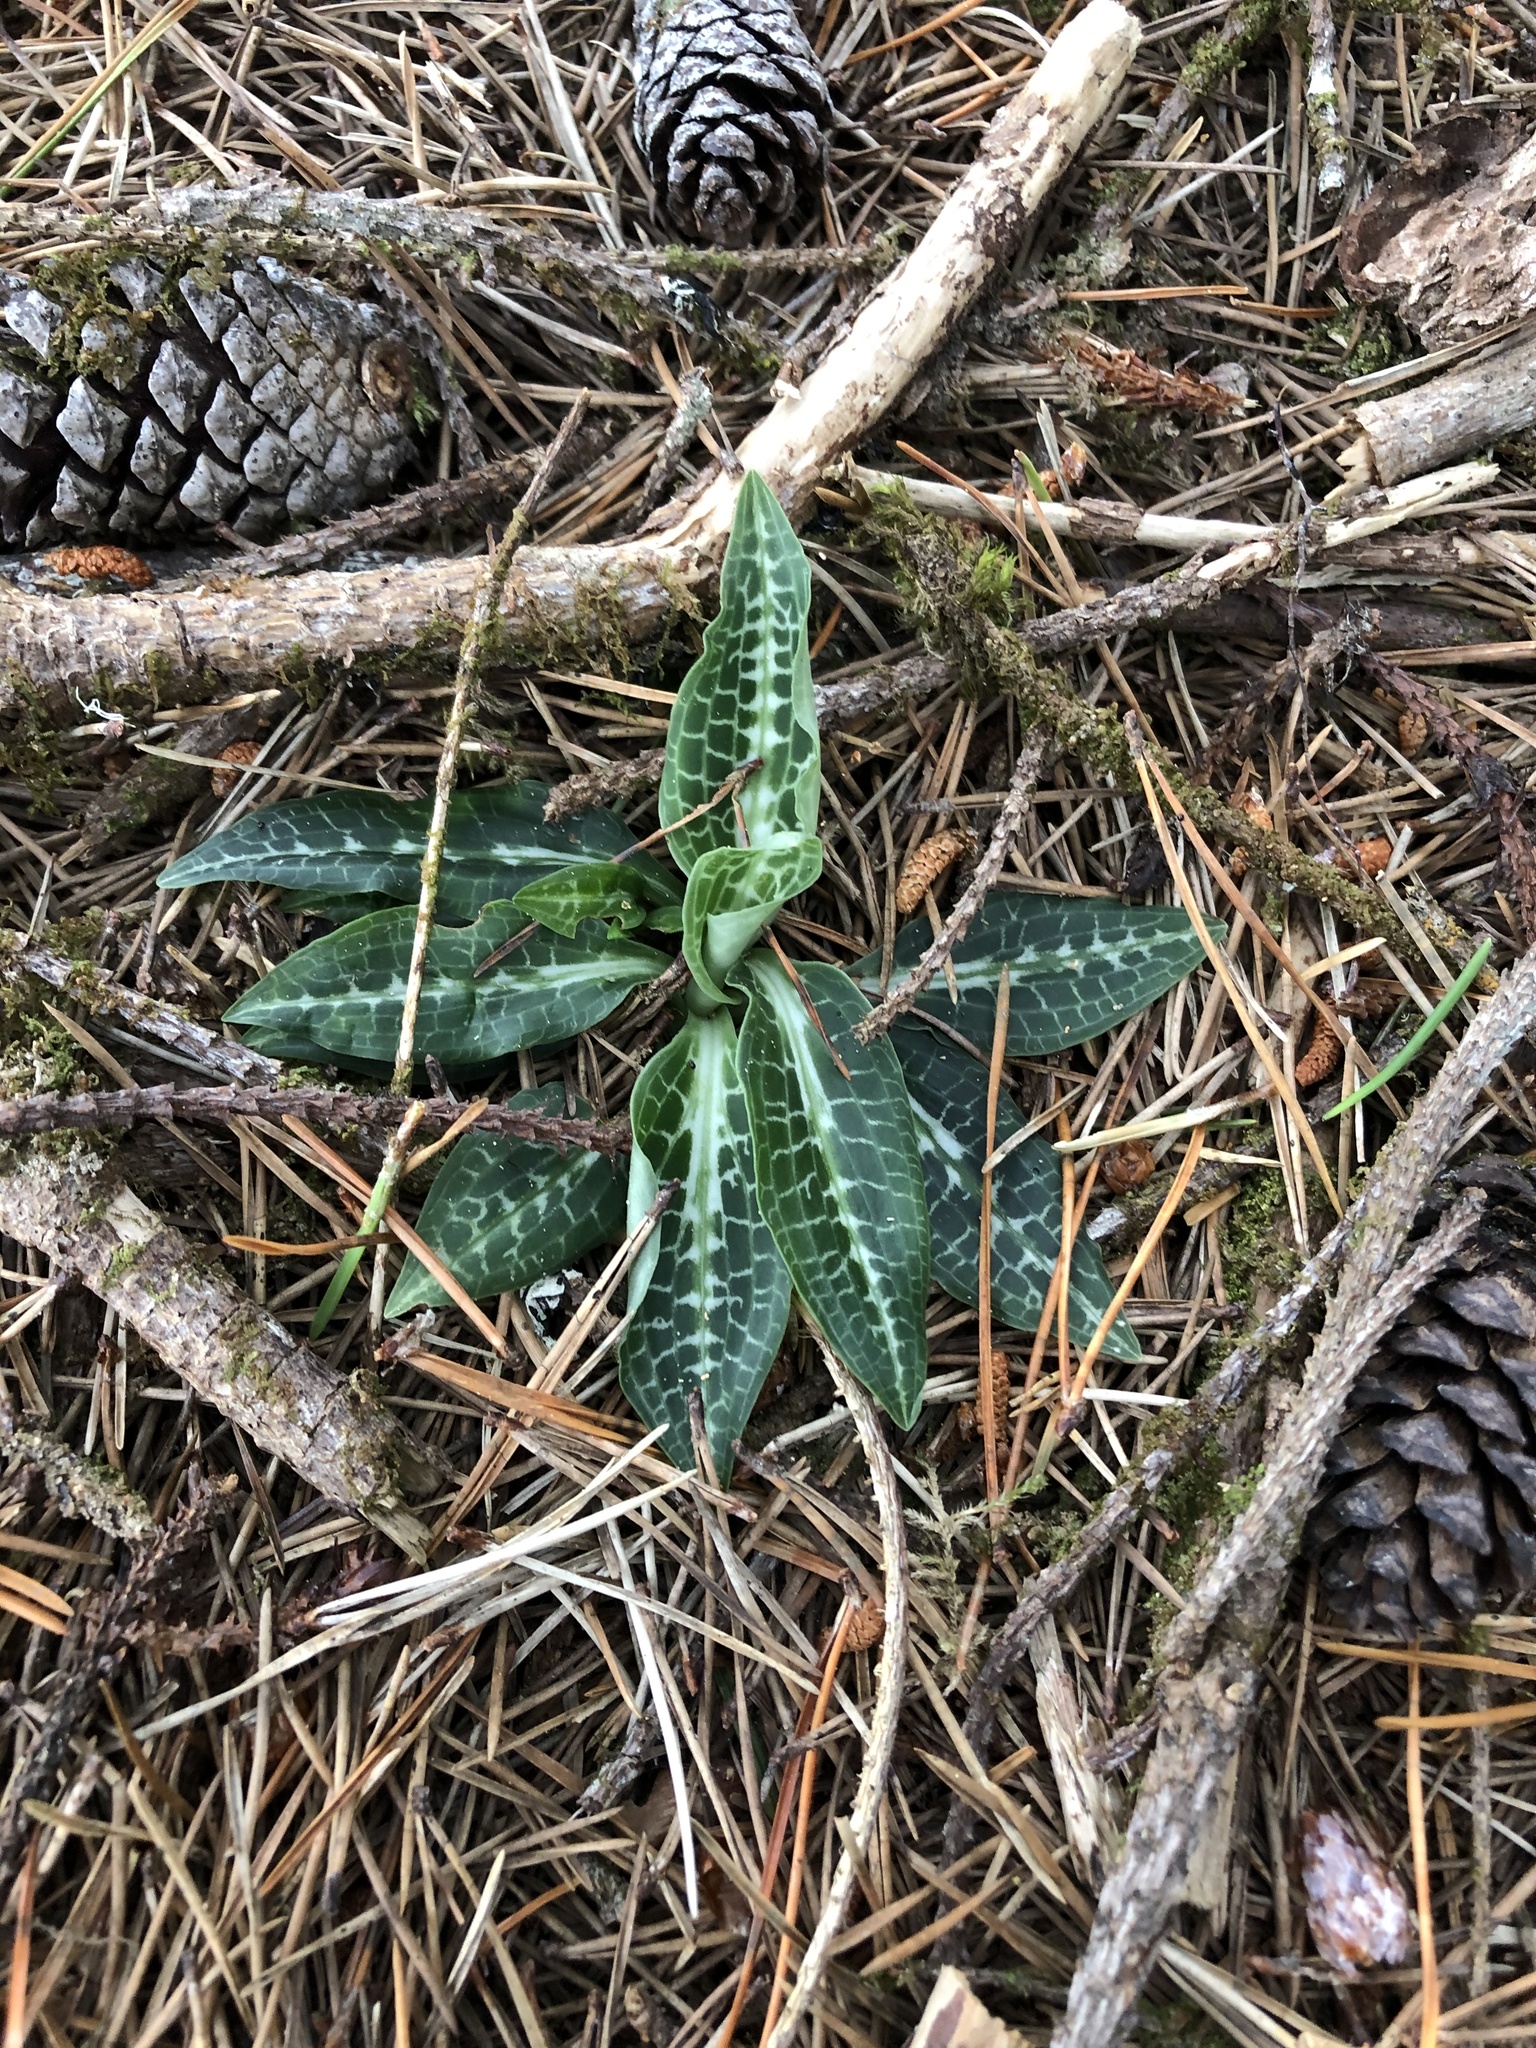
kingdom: Plantae
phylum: Tracheophyta
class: Liliopsida
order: Asparagales
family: Orchidaceae
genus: Goodyera
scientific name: Goodyera oblongifolia
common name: Giant rattlesnake-plantain
